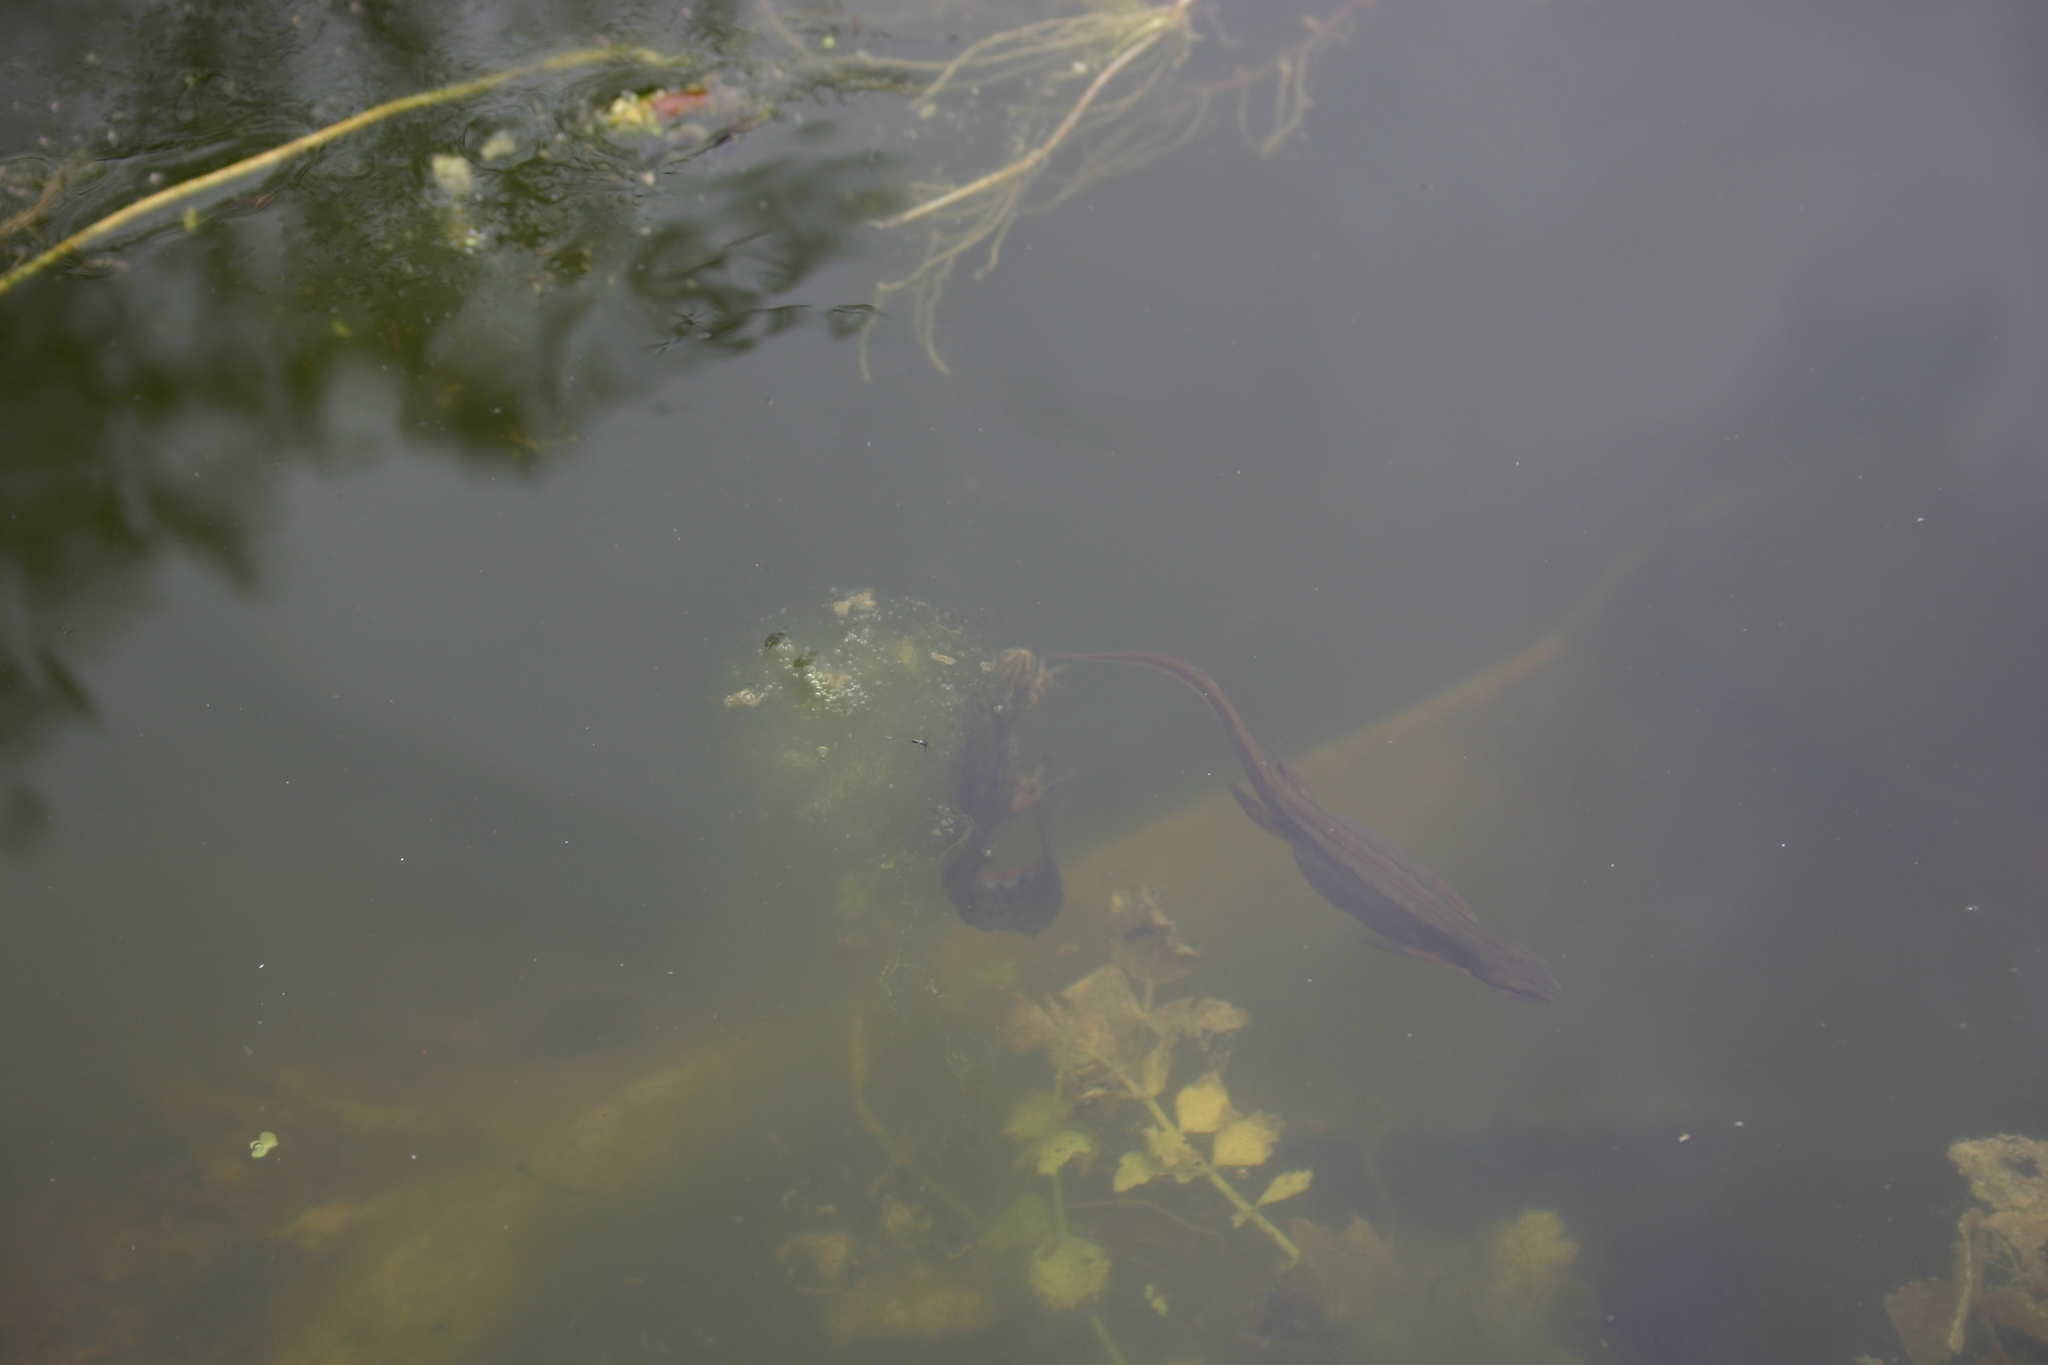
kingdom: Animalia
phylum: Chordata
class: Amphibia
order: Caudata
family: Salamandridae
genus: Lissotriton
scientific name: Lissotriton vulgaris
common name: Smooth newt
